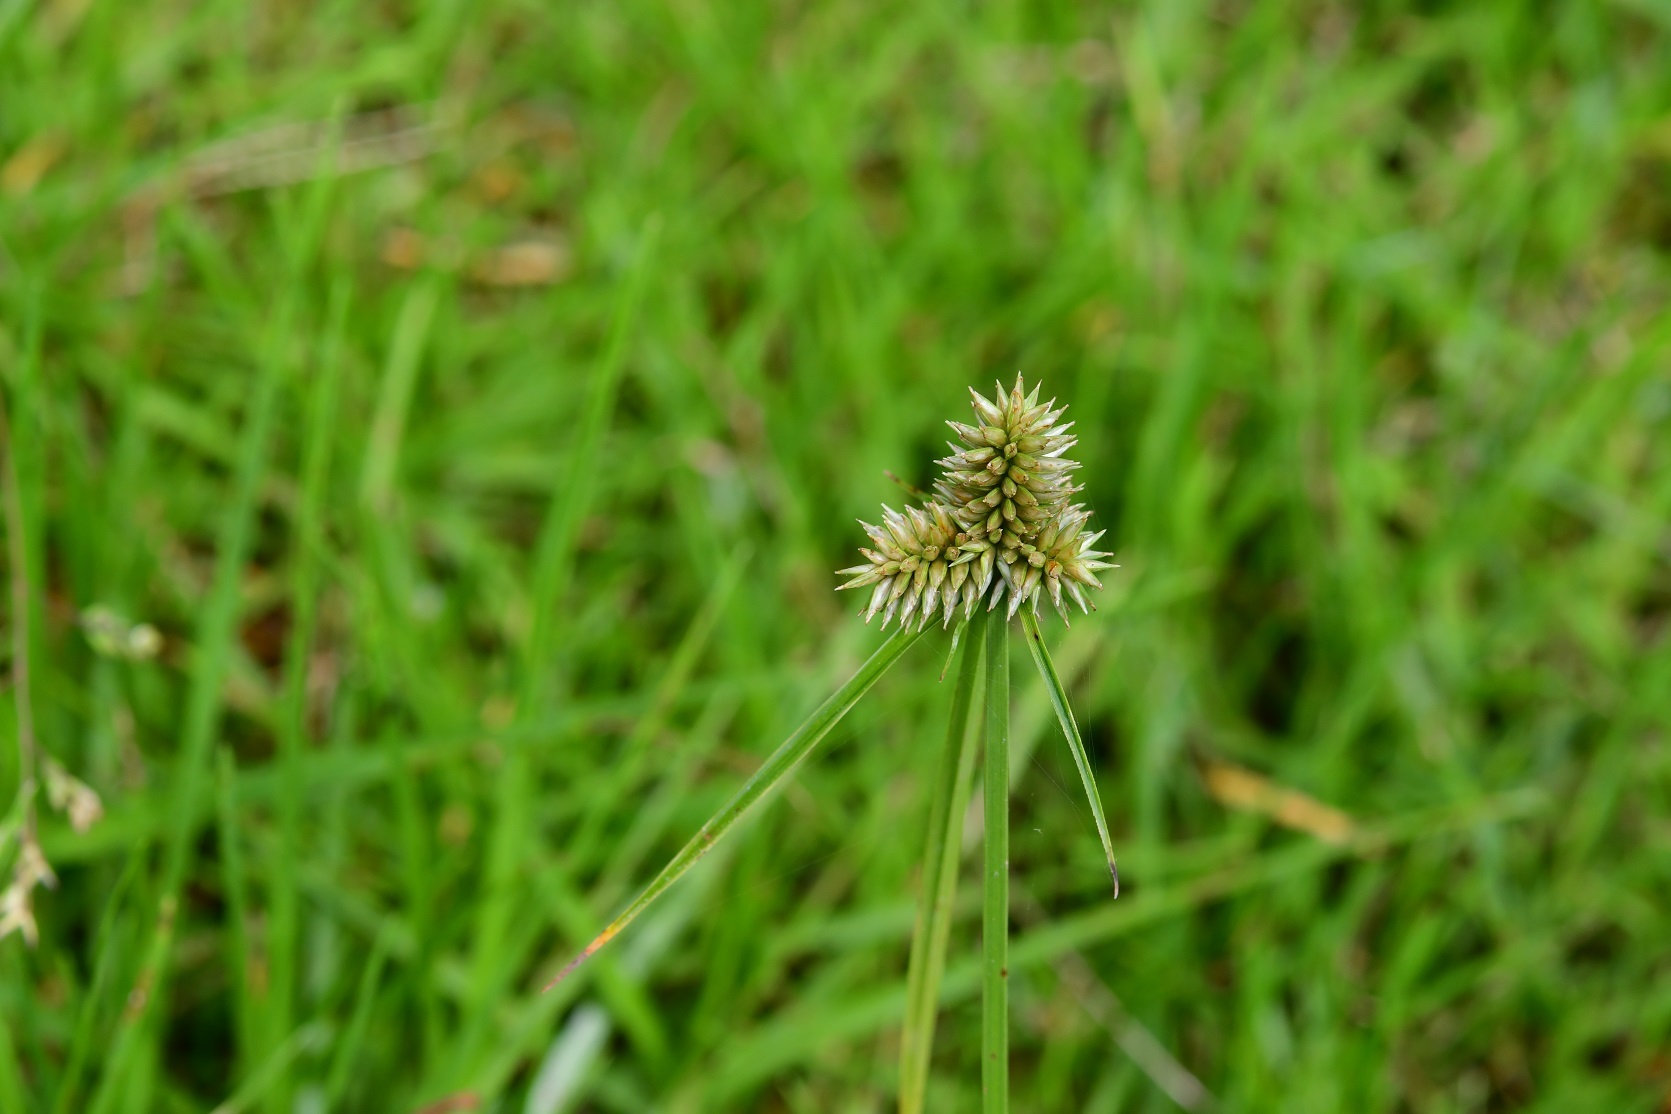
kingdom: Plantae
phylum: Tracheophyta
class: Liliopsida
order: Poales
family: Cyperaceae
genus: Cyperus
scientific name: Cyperus svensonii
